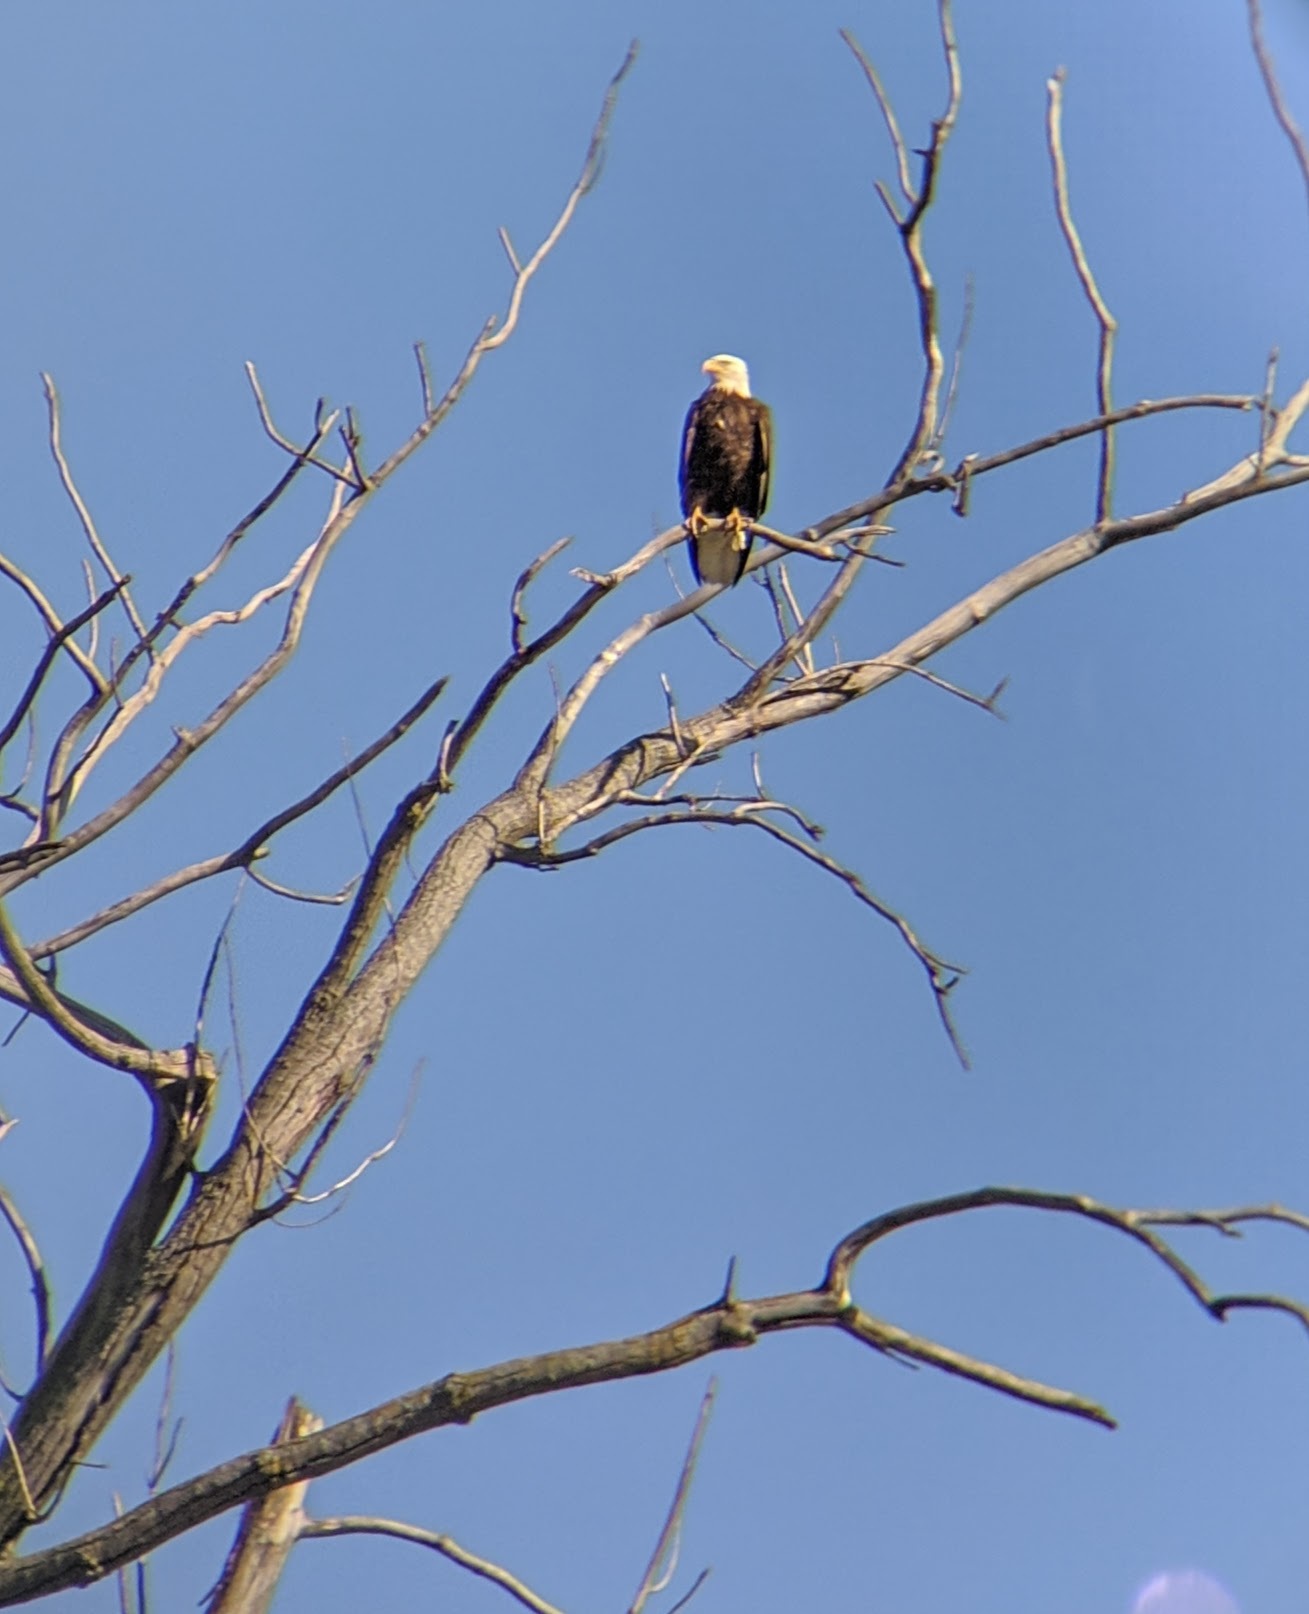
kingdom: Animalia
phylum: Chordata
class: Aves
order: Accipitriformes
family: Accipitridae
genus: Haliaeetus
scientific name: Haliaeetus leucocephalus
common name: Bald eagle
